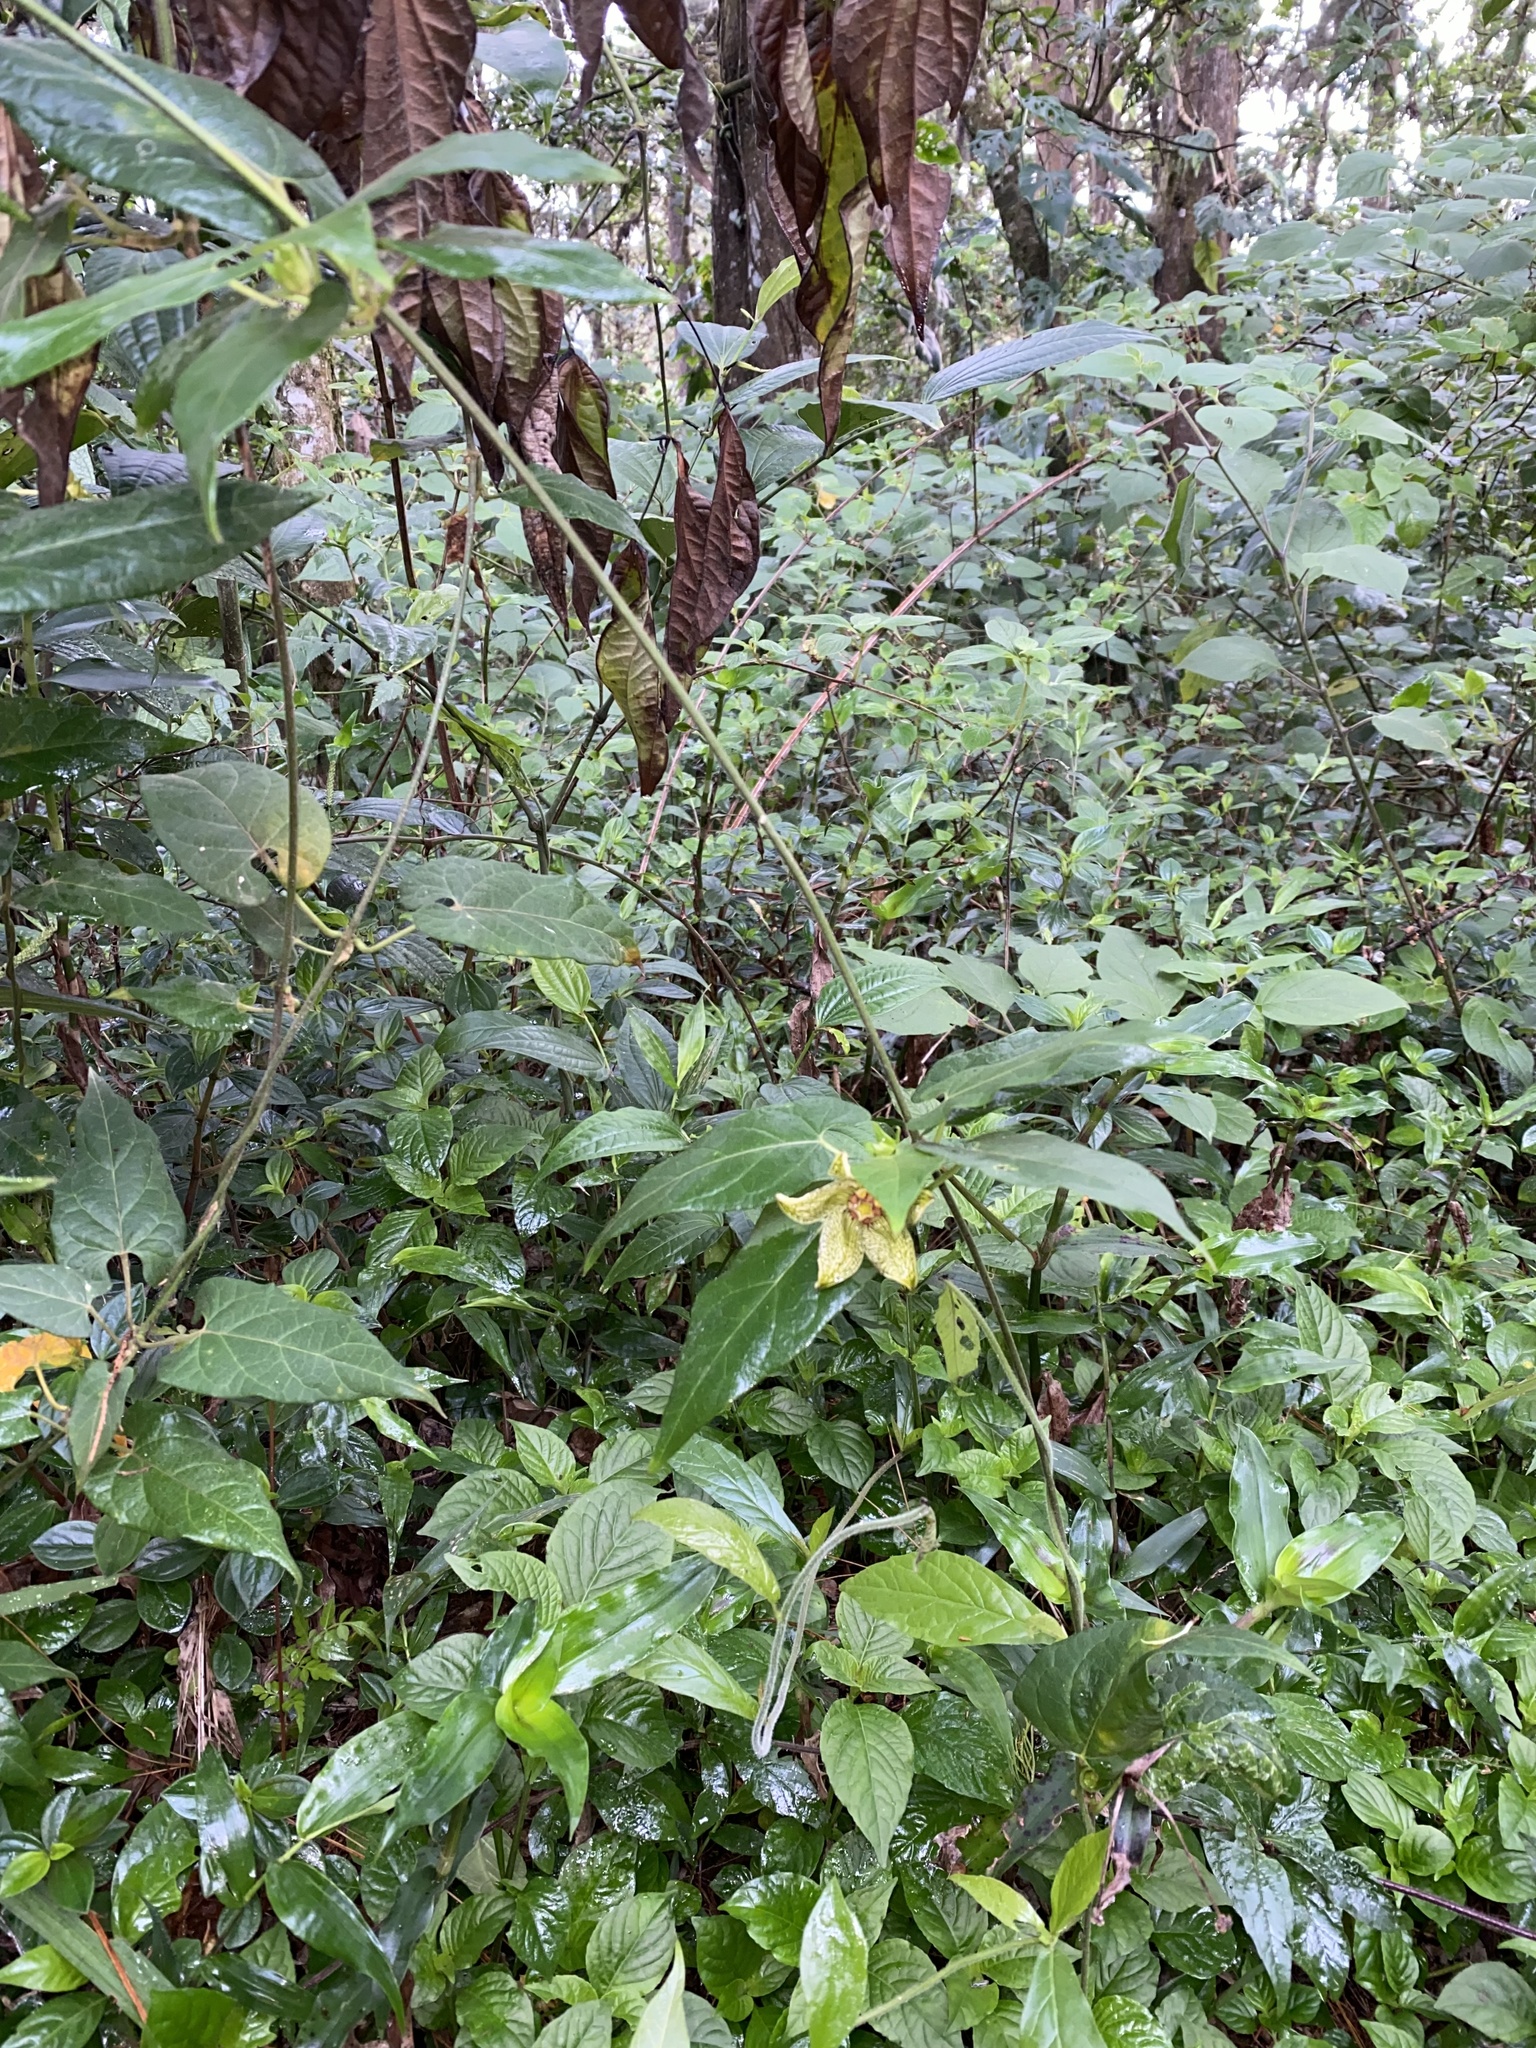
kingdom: Plantae
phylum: Tracheophyta
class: Magnoliopsida
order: Gentianales
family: Apocynaceae
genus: Gonolobus
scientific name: Gonolobus incerianus
